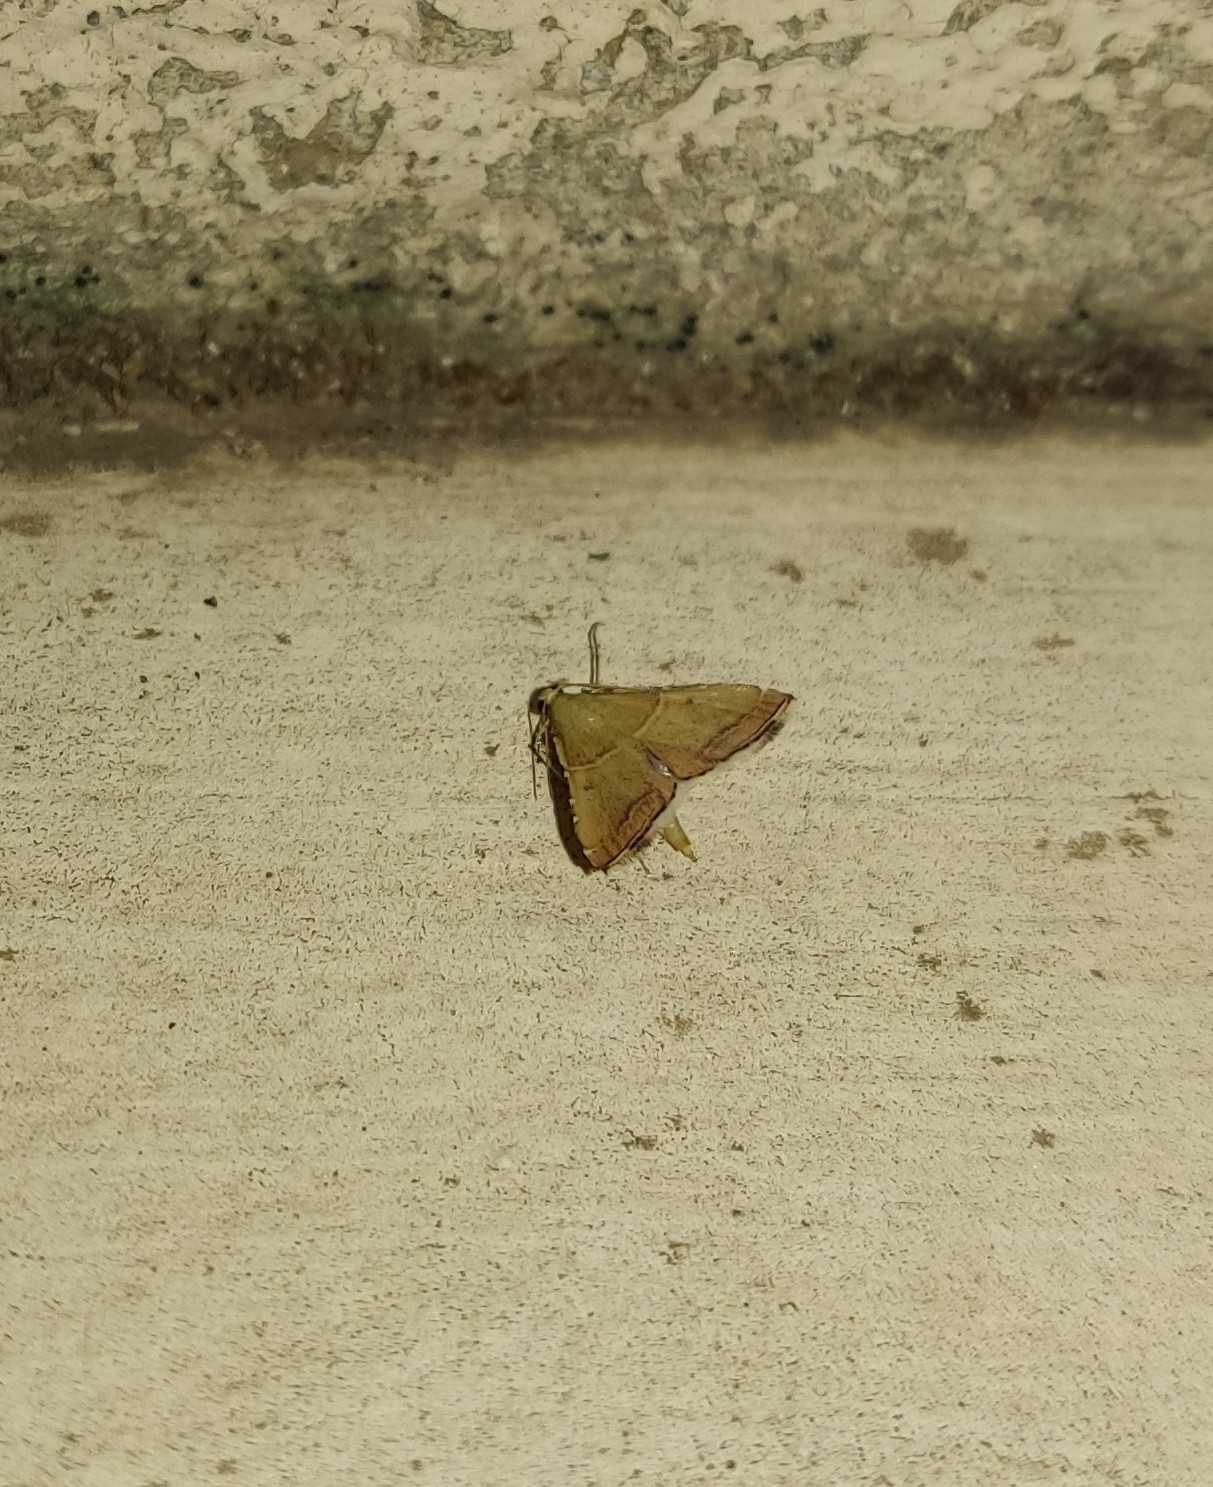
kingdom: Animalia
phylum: Arthropoda
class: Insecta
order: Lepidoptera
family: Pyralidae
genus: Endotricha
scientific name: Endotricha flammealis
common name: Rosy tabby
